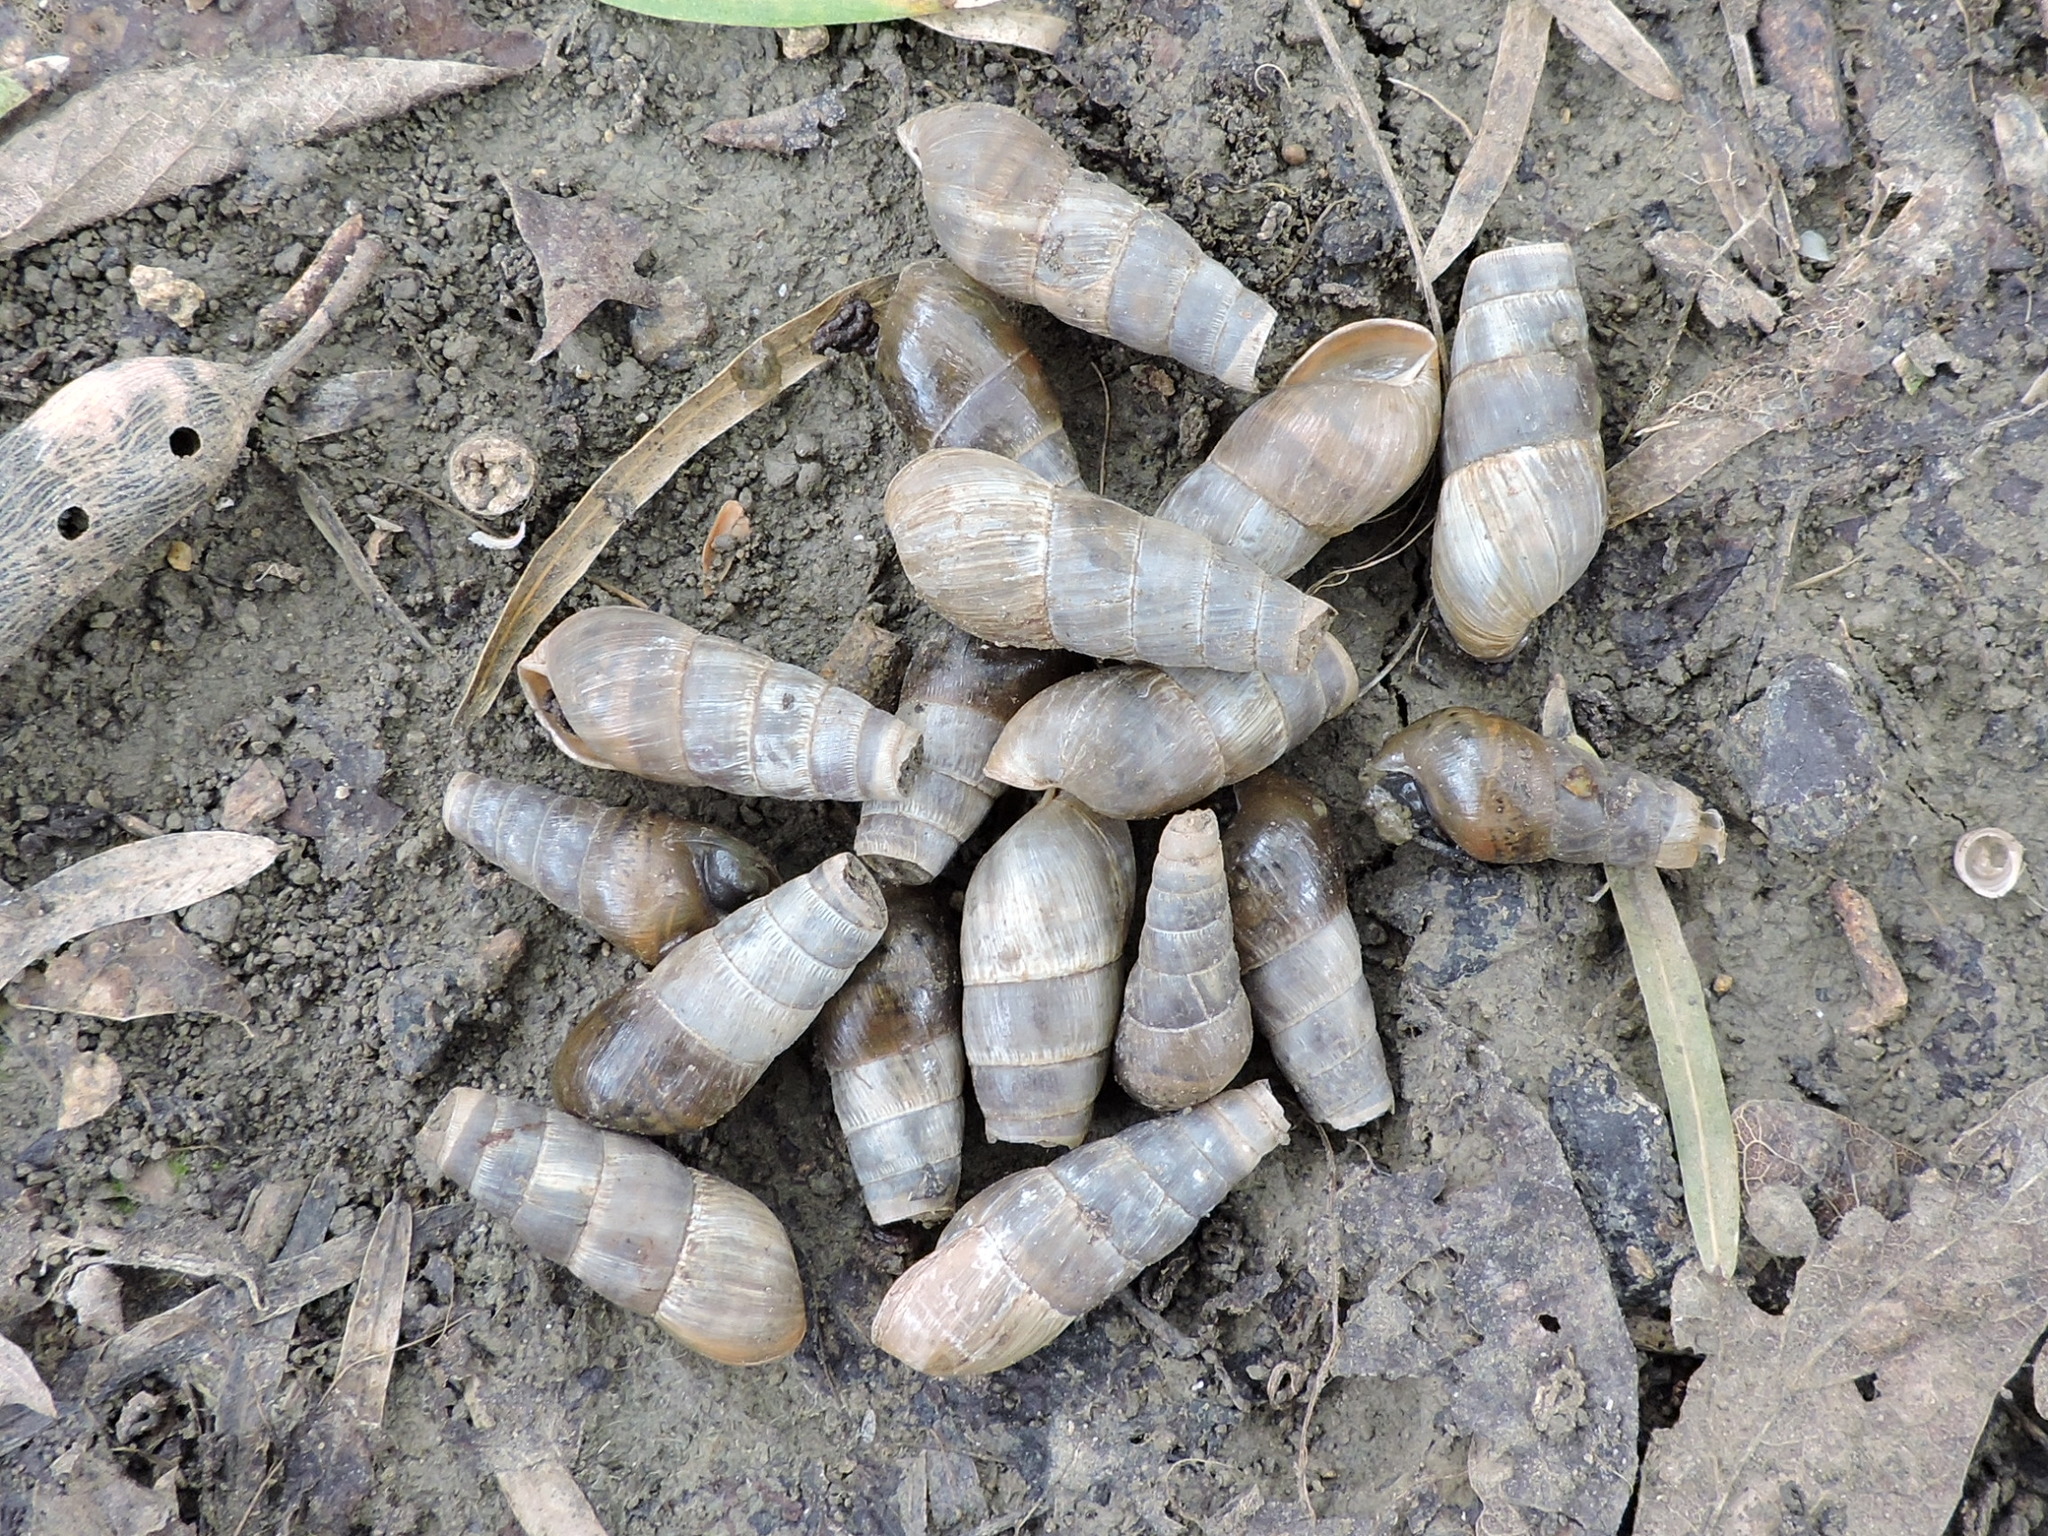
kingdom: Animalia
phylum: Mollusca
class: Gastropoda
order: Stylommatophora
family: Achatinidae
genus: Rumina
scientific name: Rumina decollata
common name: Decollate snail
